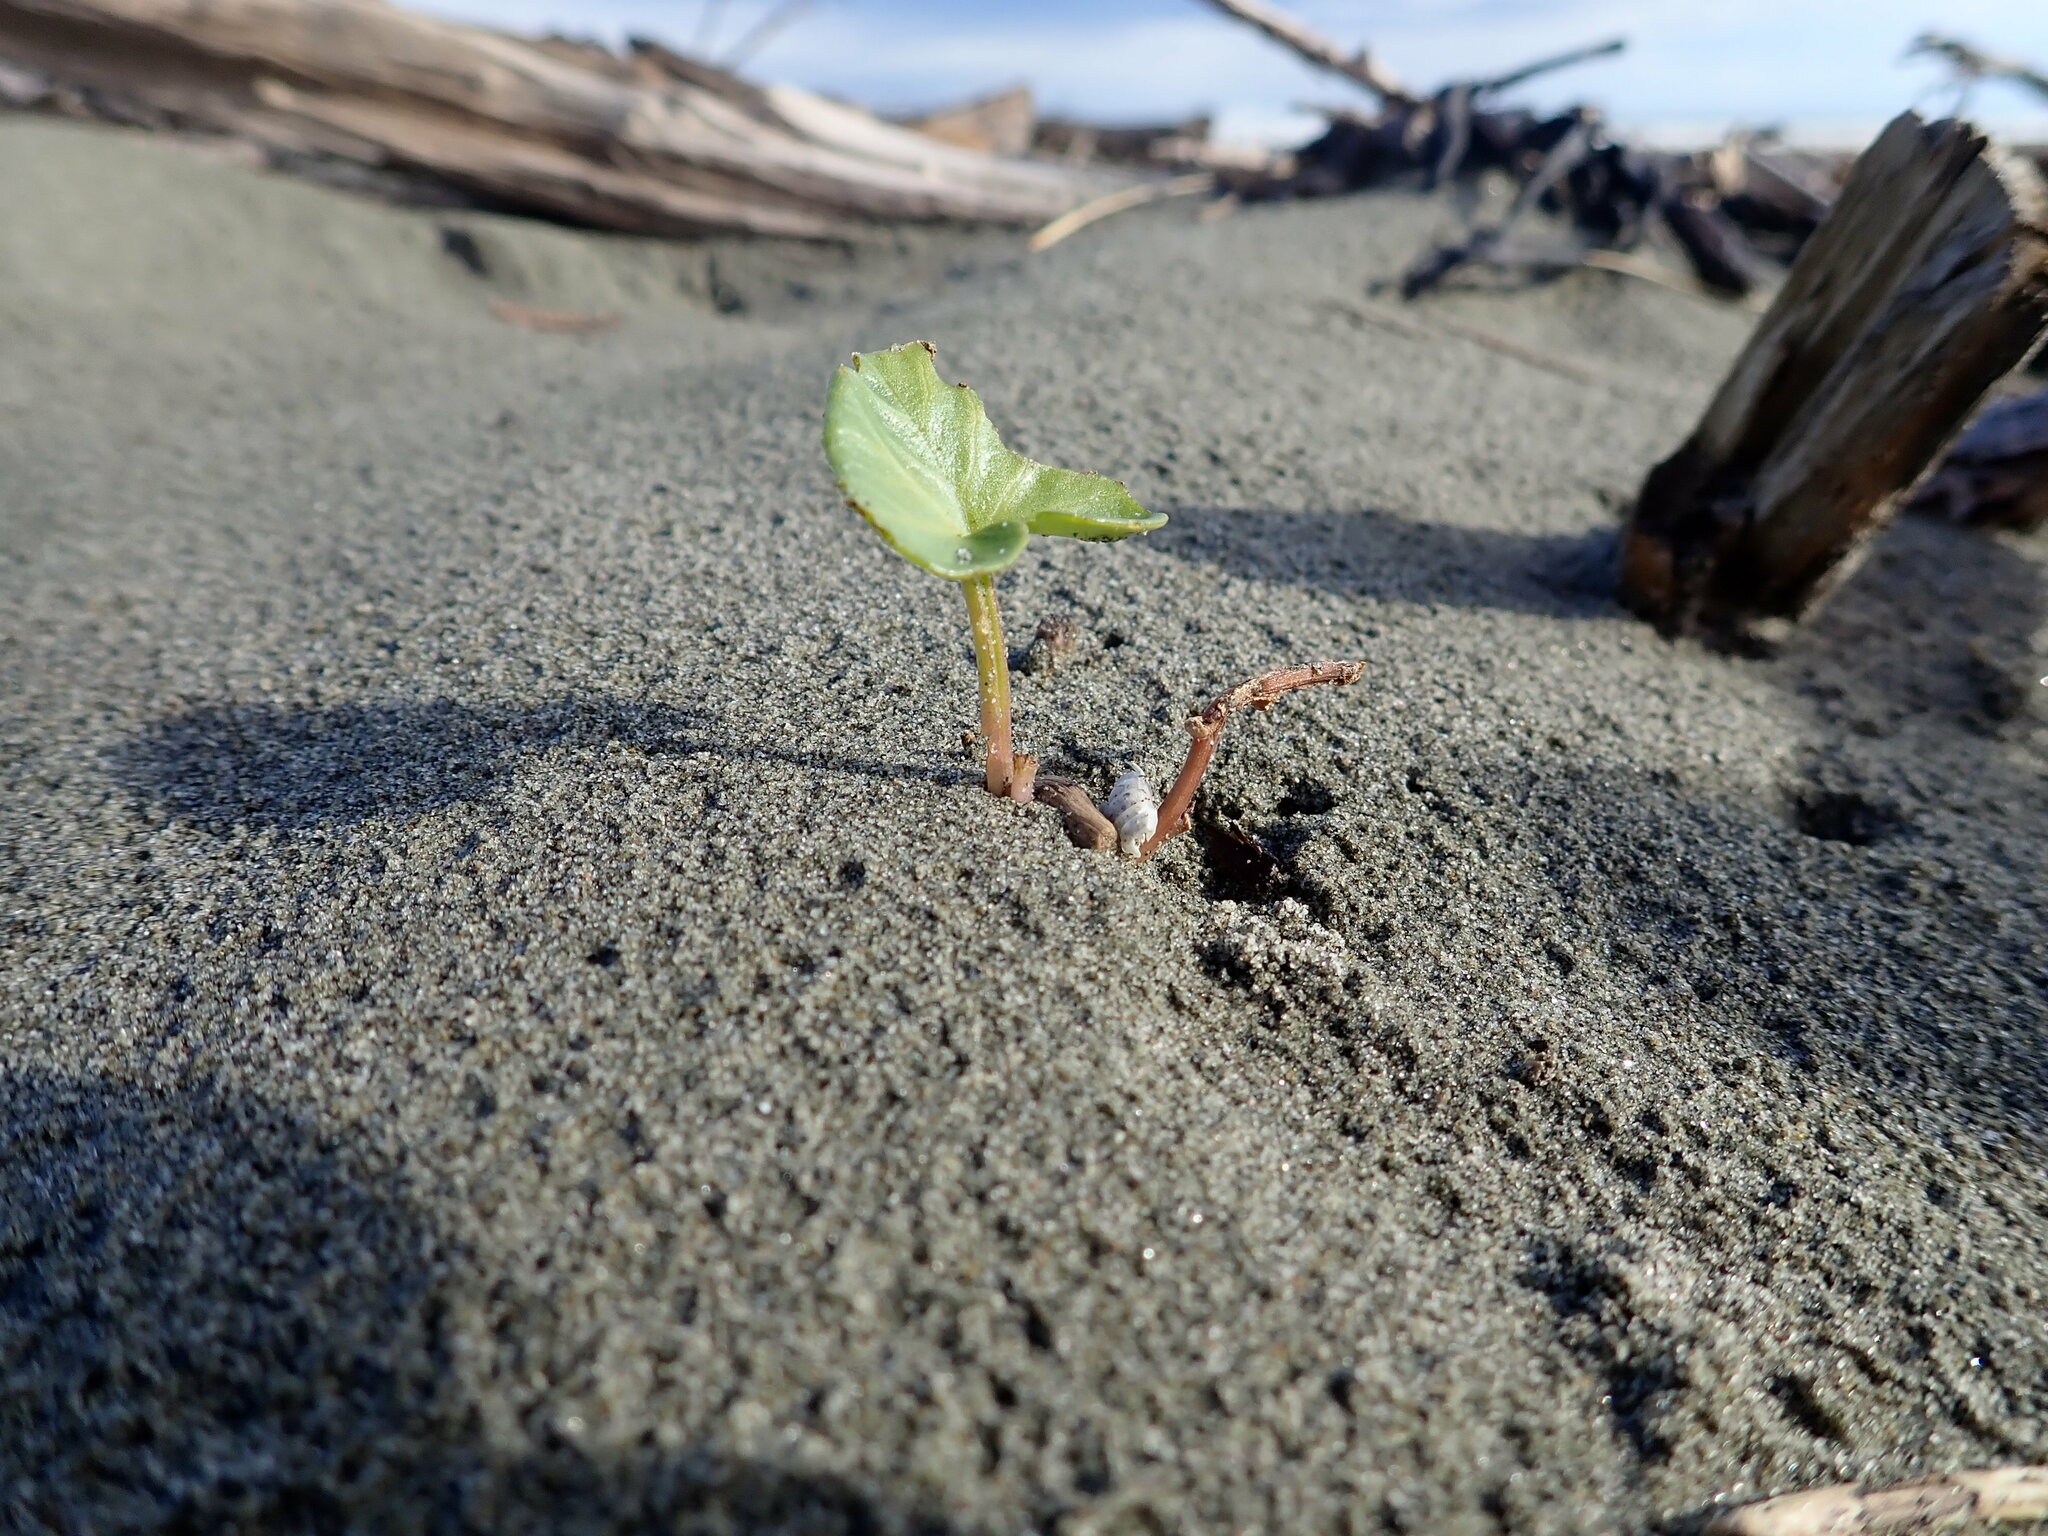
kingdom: Plantae
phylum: Tracheophyta
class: Magnoliopsida
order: Solanales
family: Convolvulaceae
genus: Calystegia
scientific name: Calystegia soldanella
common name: Sea bindweed
